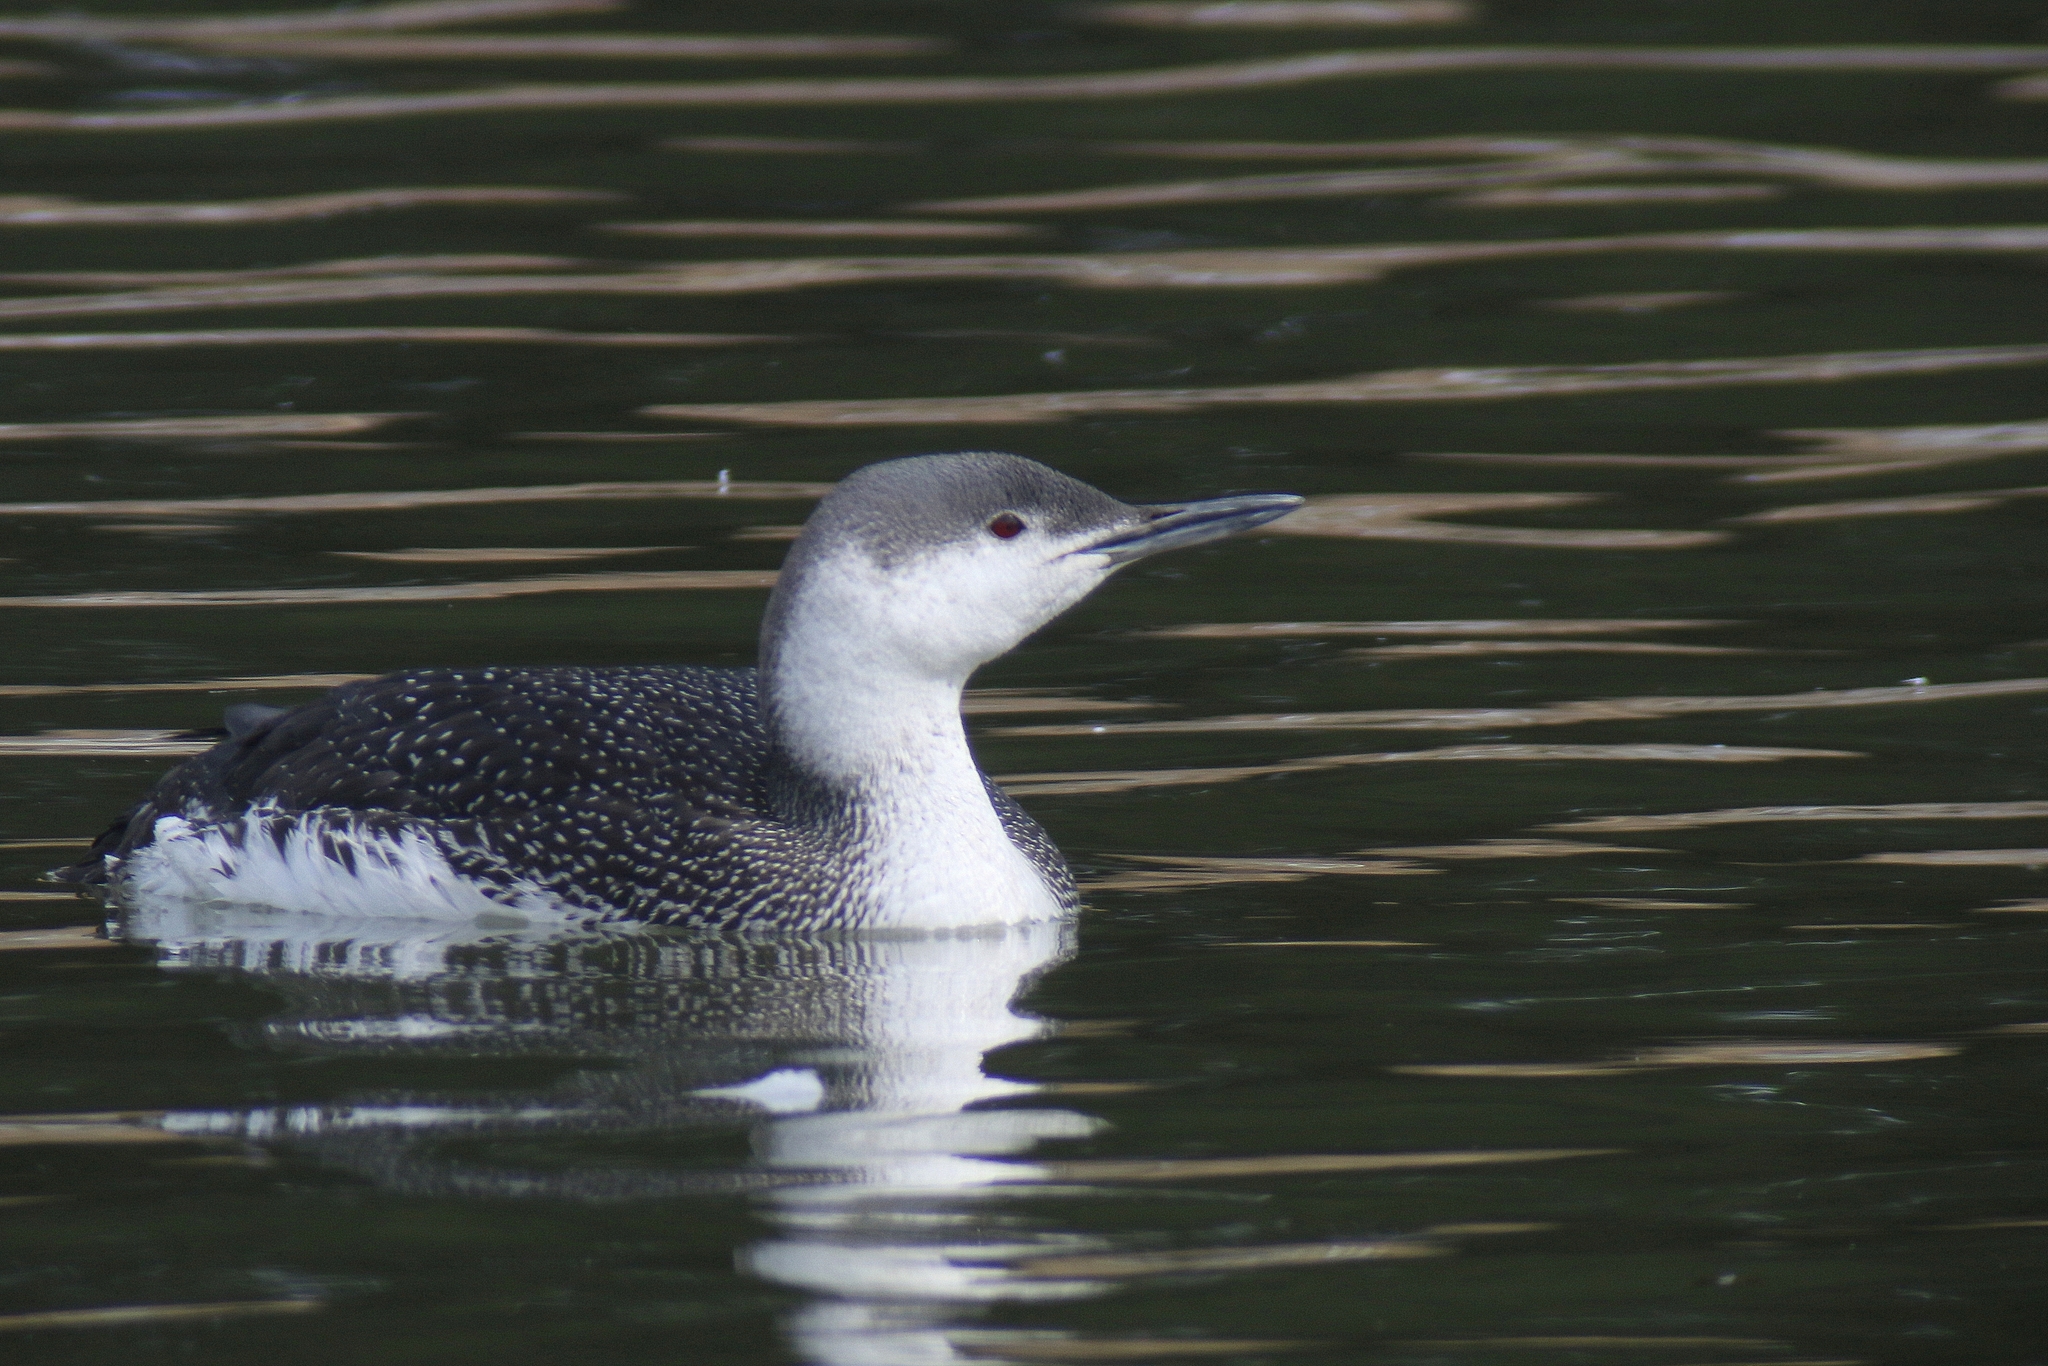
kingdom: Animalia
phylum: Chordata
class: Aves
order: Gaviiformes
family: Gaviidae
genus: Gavia
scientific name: Gavia stellata
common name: Red-throated loon
